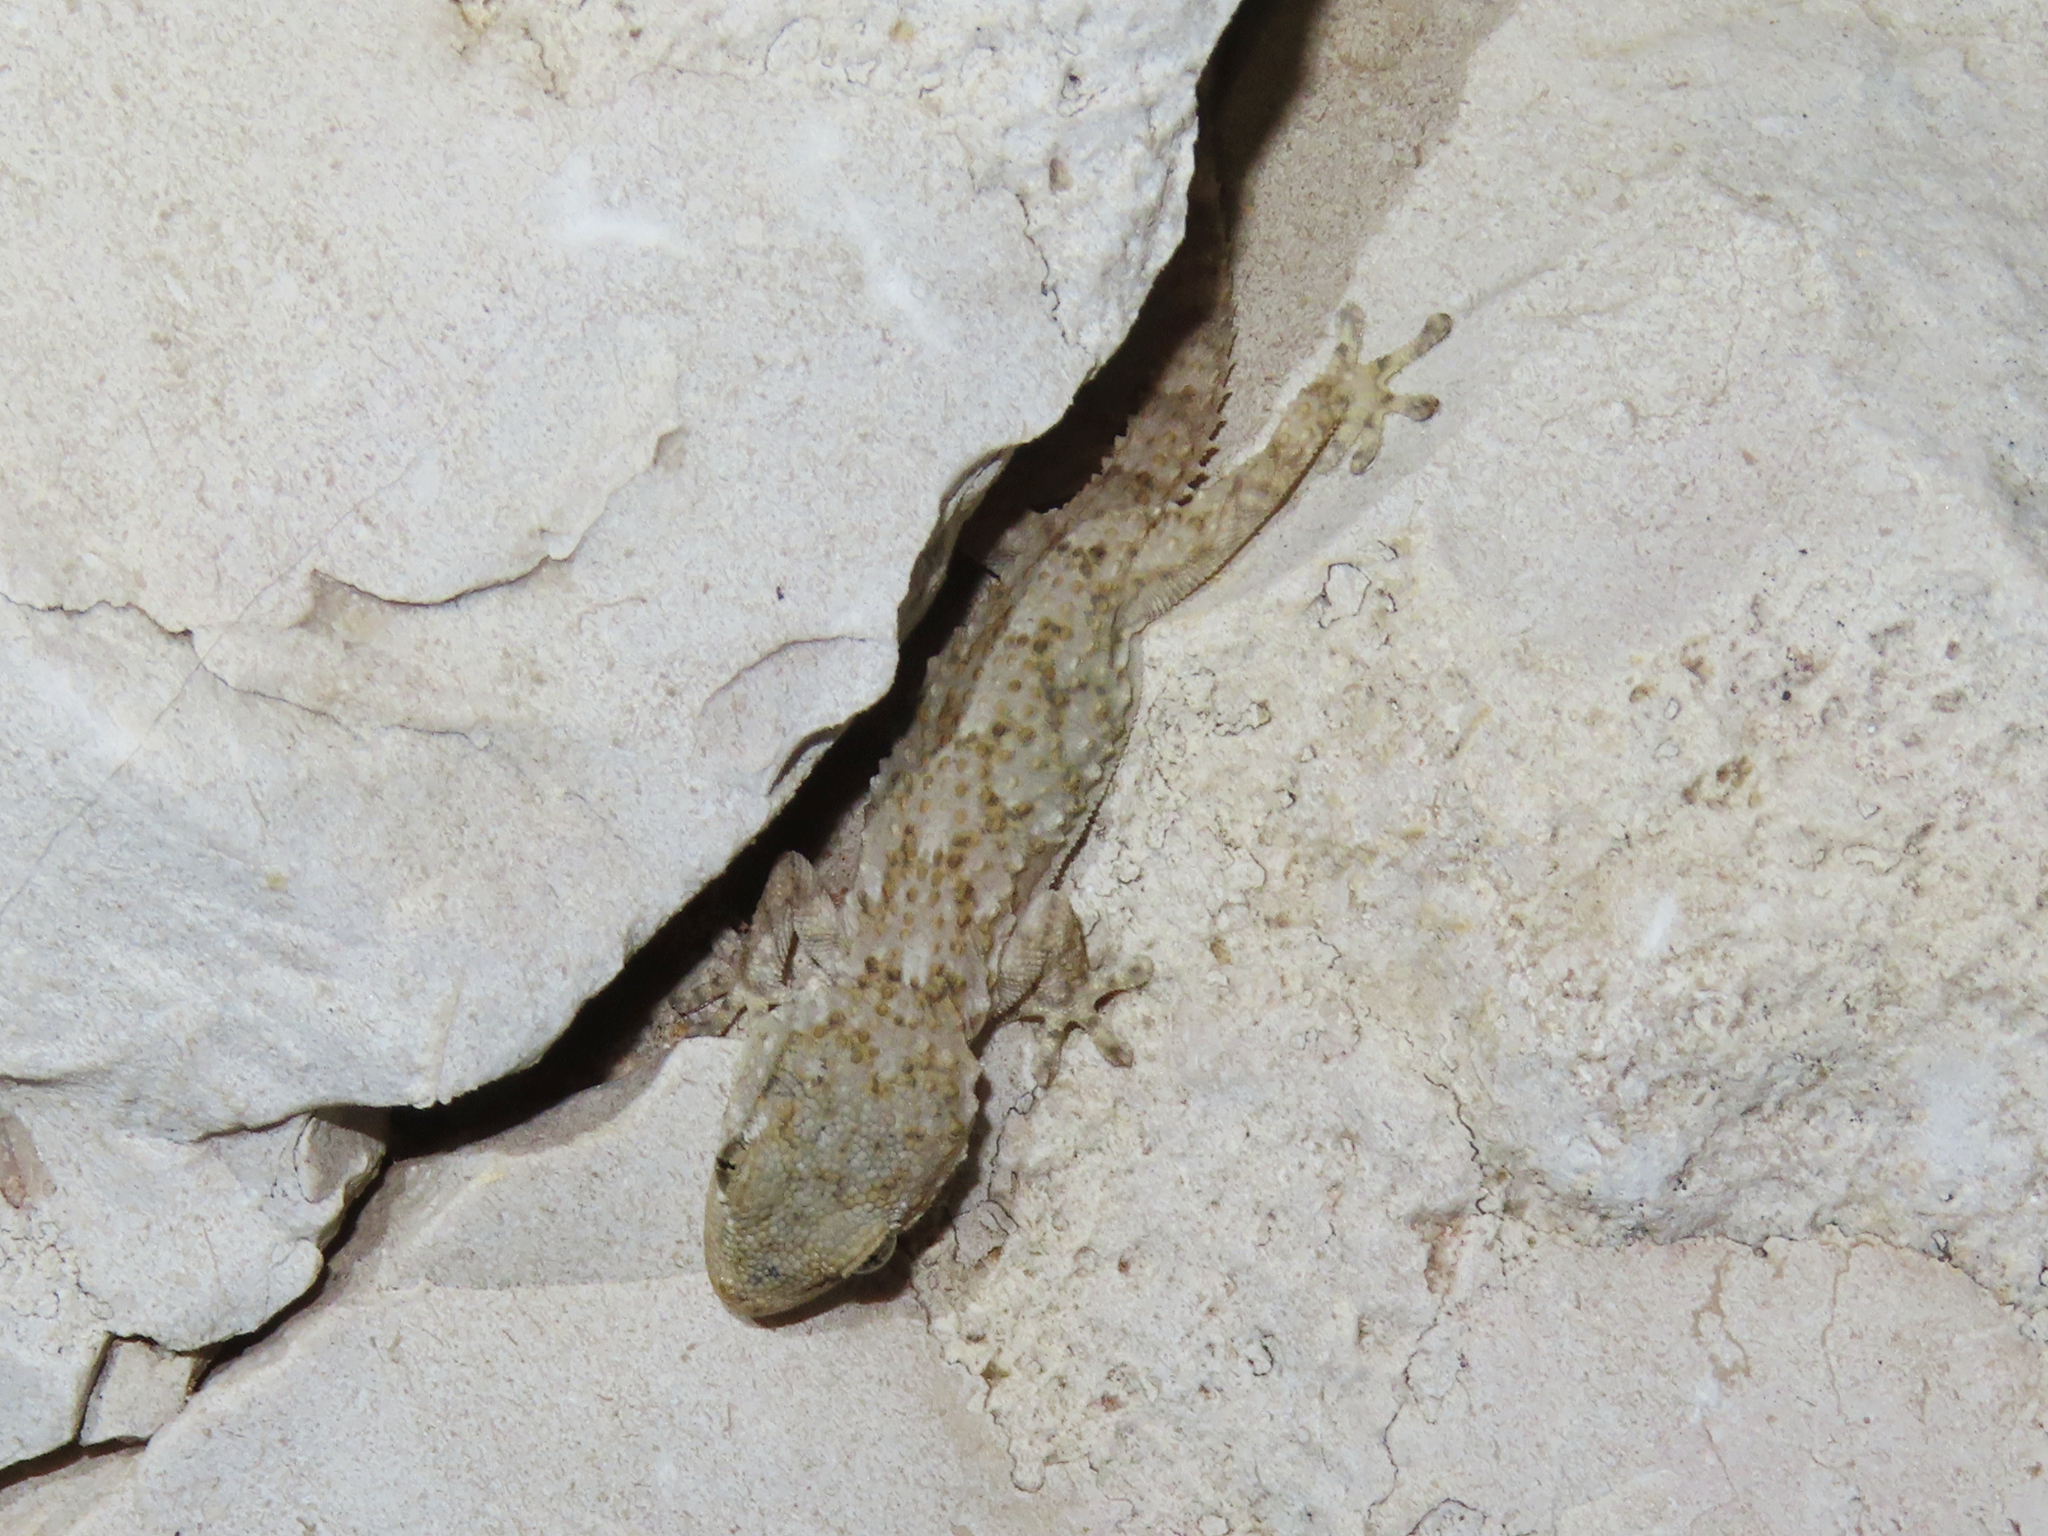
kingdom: Animalia
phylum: Chordata
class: Squamata
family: Phyllodactylidae
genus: Tarentola
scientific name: Tarentola mauritanica
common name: Moorish gecko
